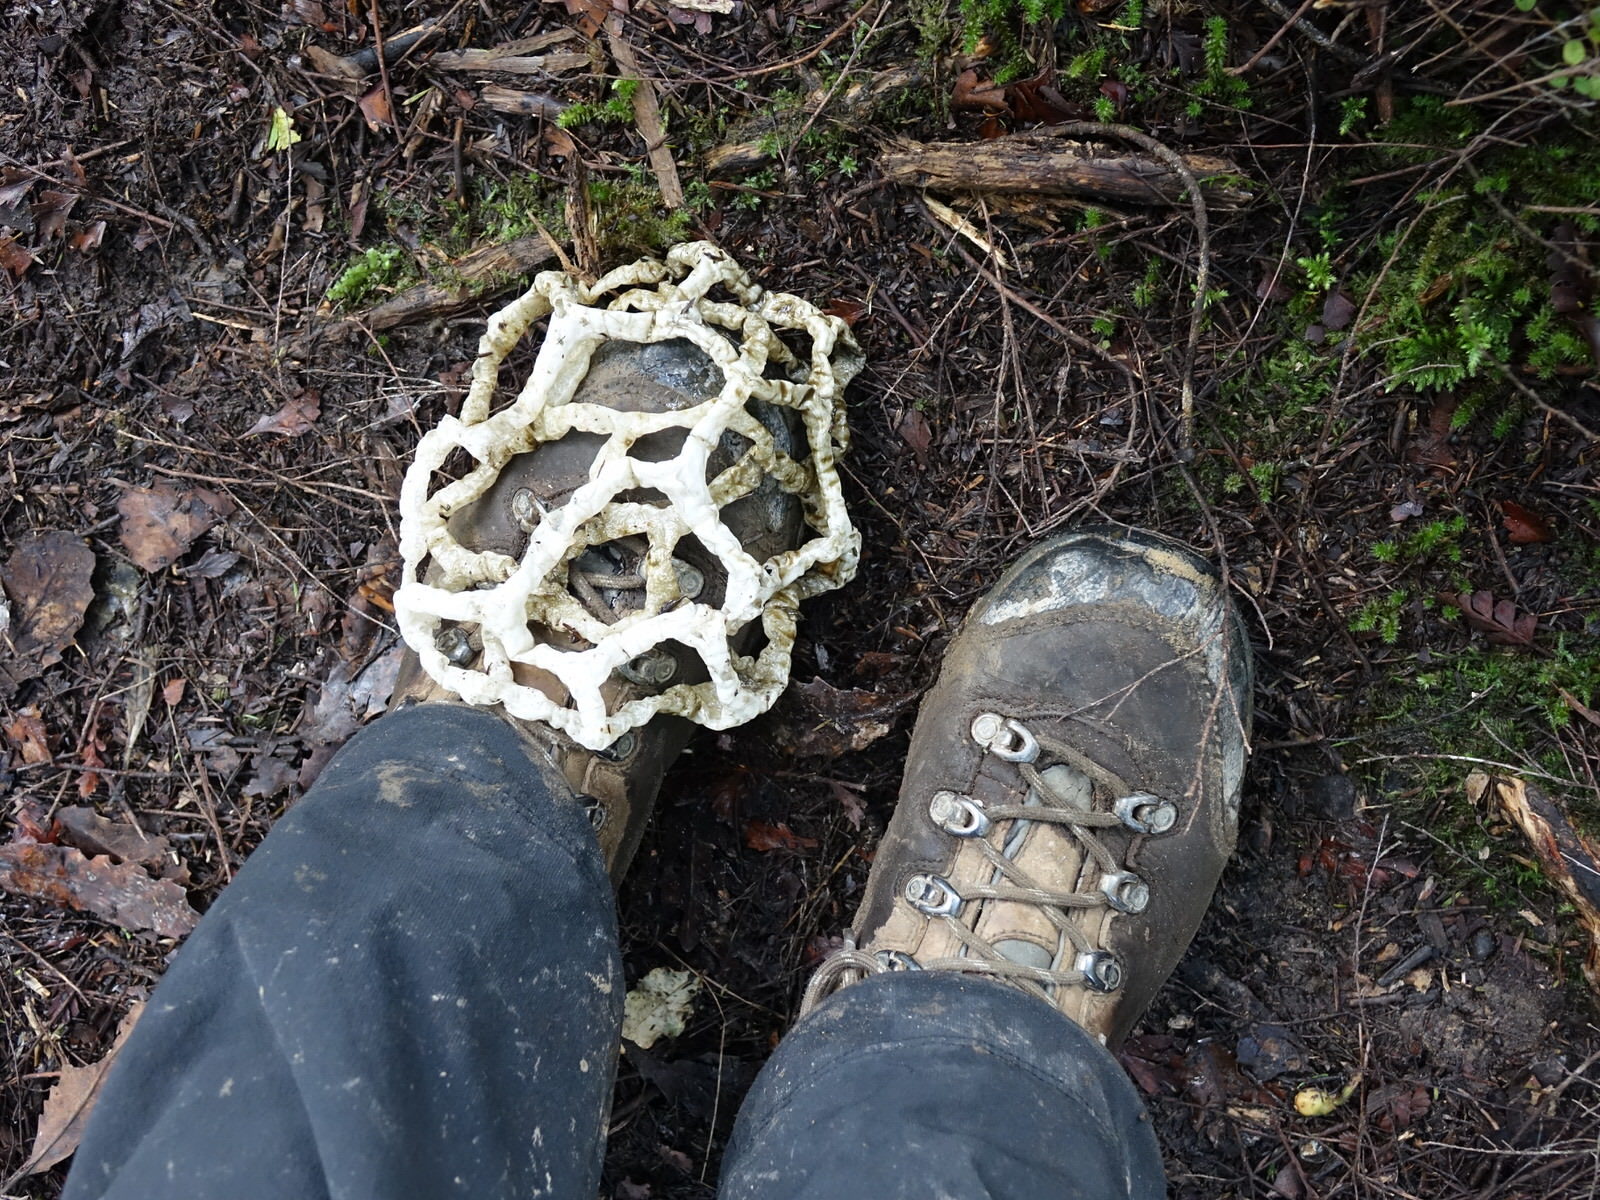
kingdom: Fungi
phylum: Basidiomycota
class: Agaricomycetes
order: Phallales
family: Phallaceae
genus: Ileodictyon
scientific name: Ileodictyon cibarium
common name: Basket fungus
